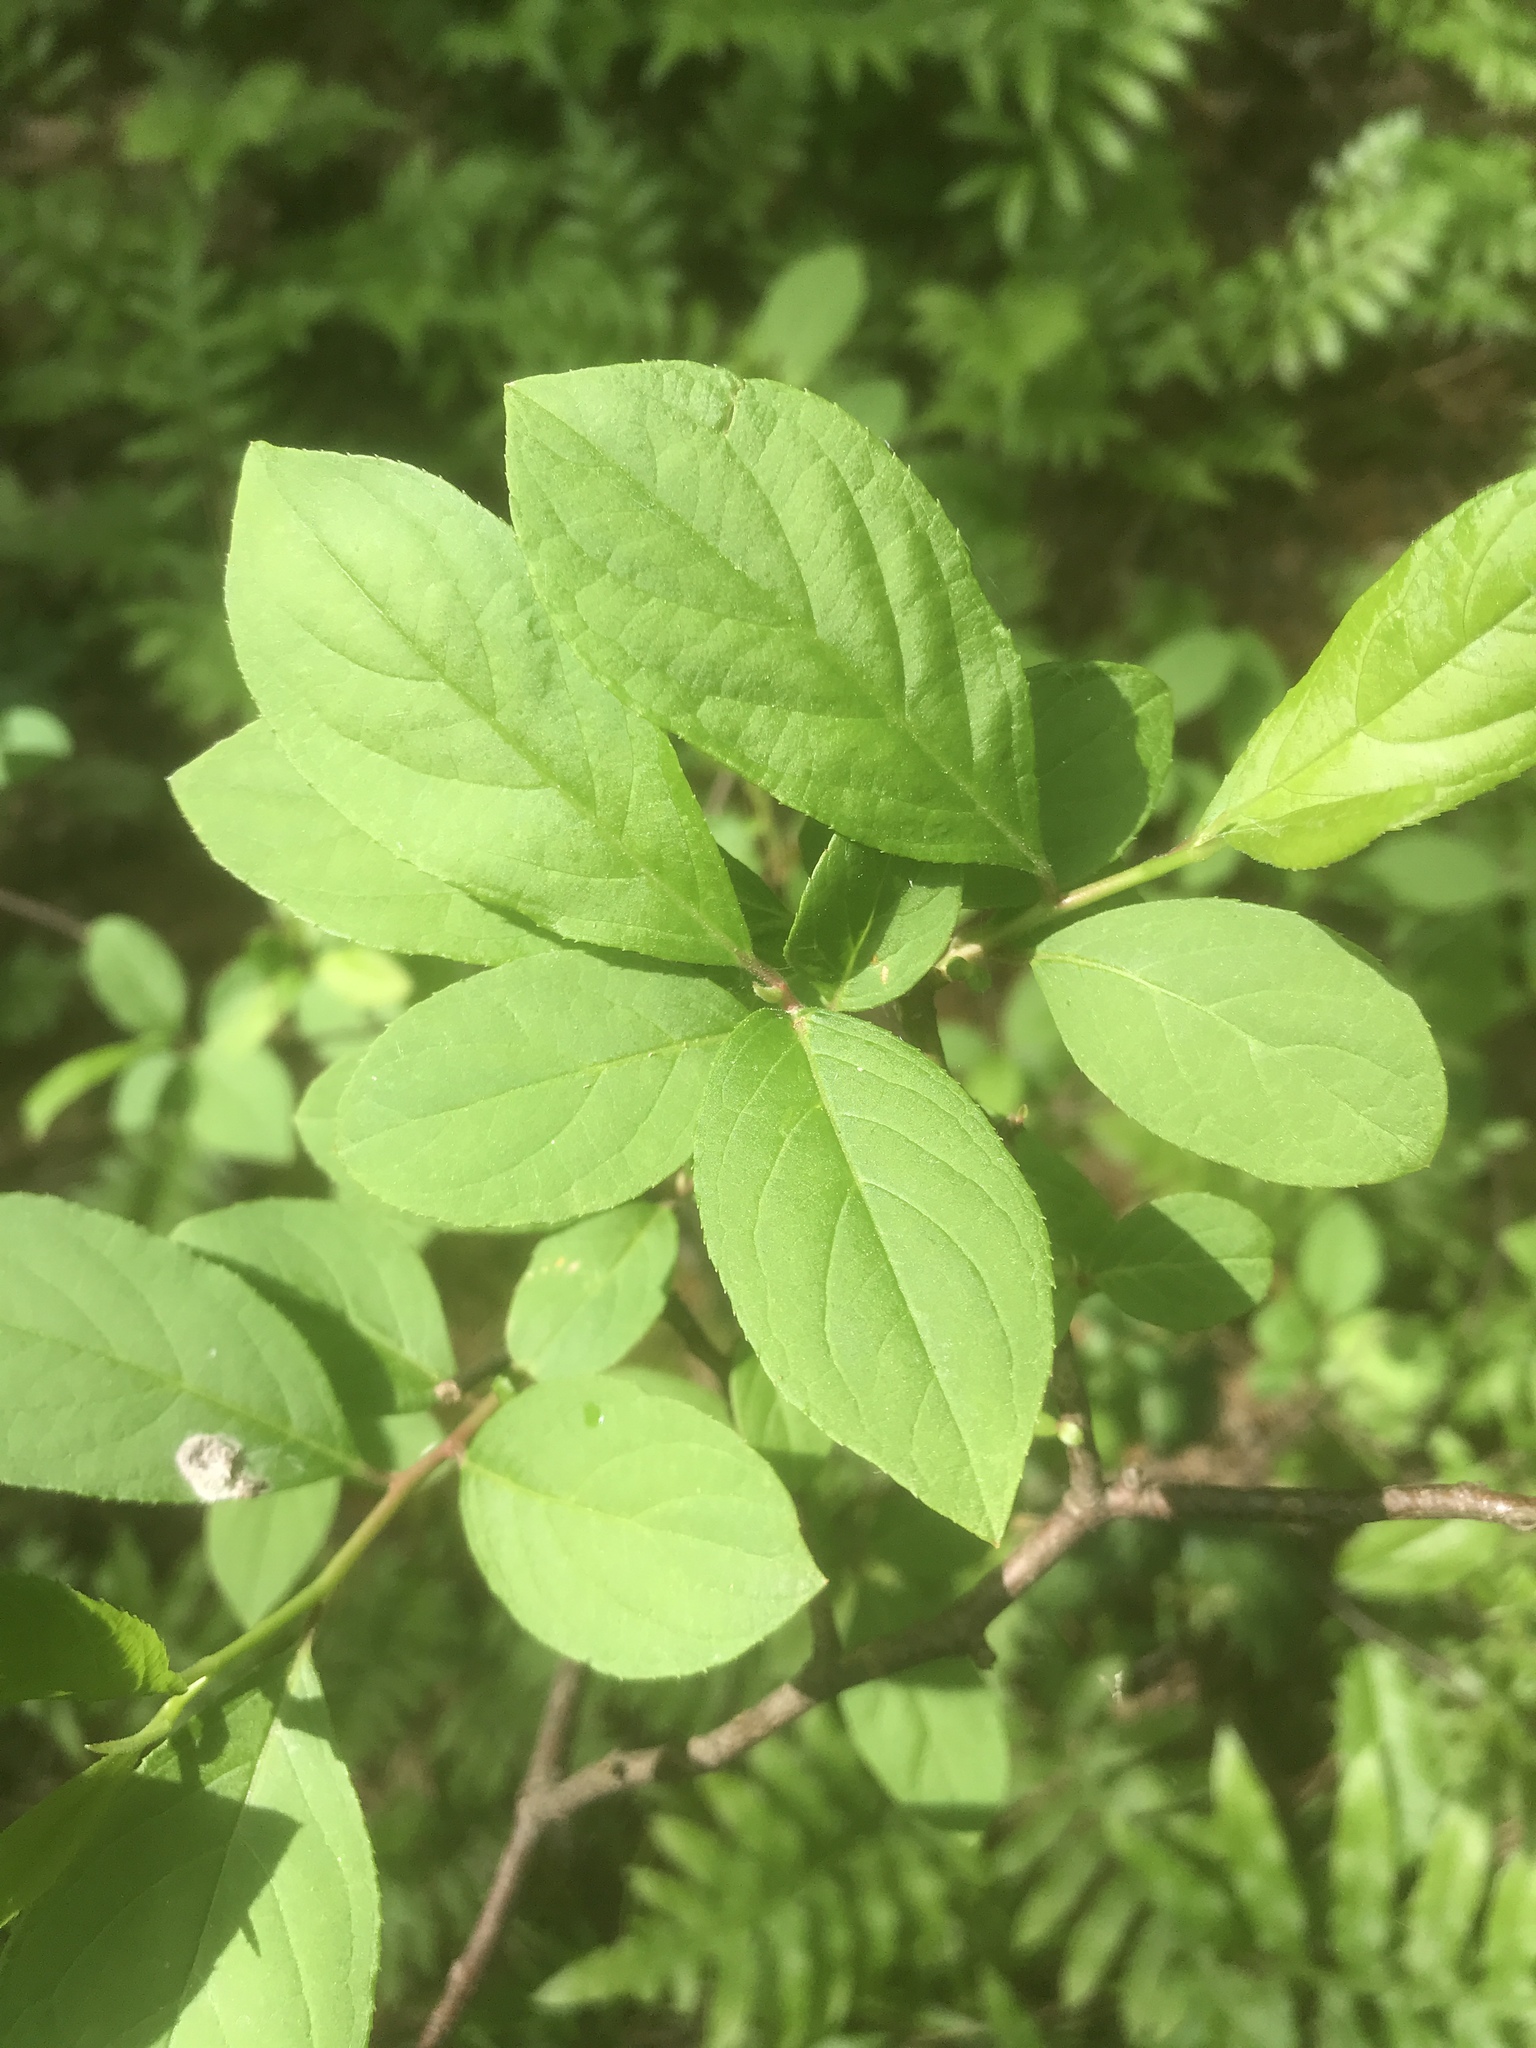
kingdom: Plantae
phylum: Tracheophyta
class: Magnoliopsida
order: Saxifragales
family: Iteaceae
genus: Itea
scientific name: Itea virginica
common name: Sweetspire
